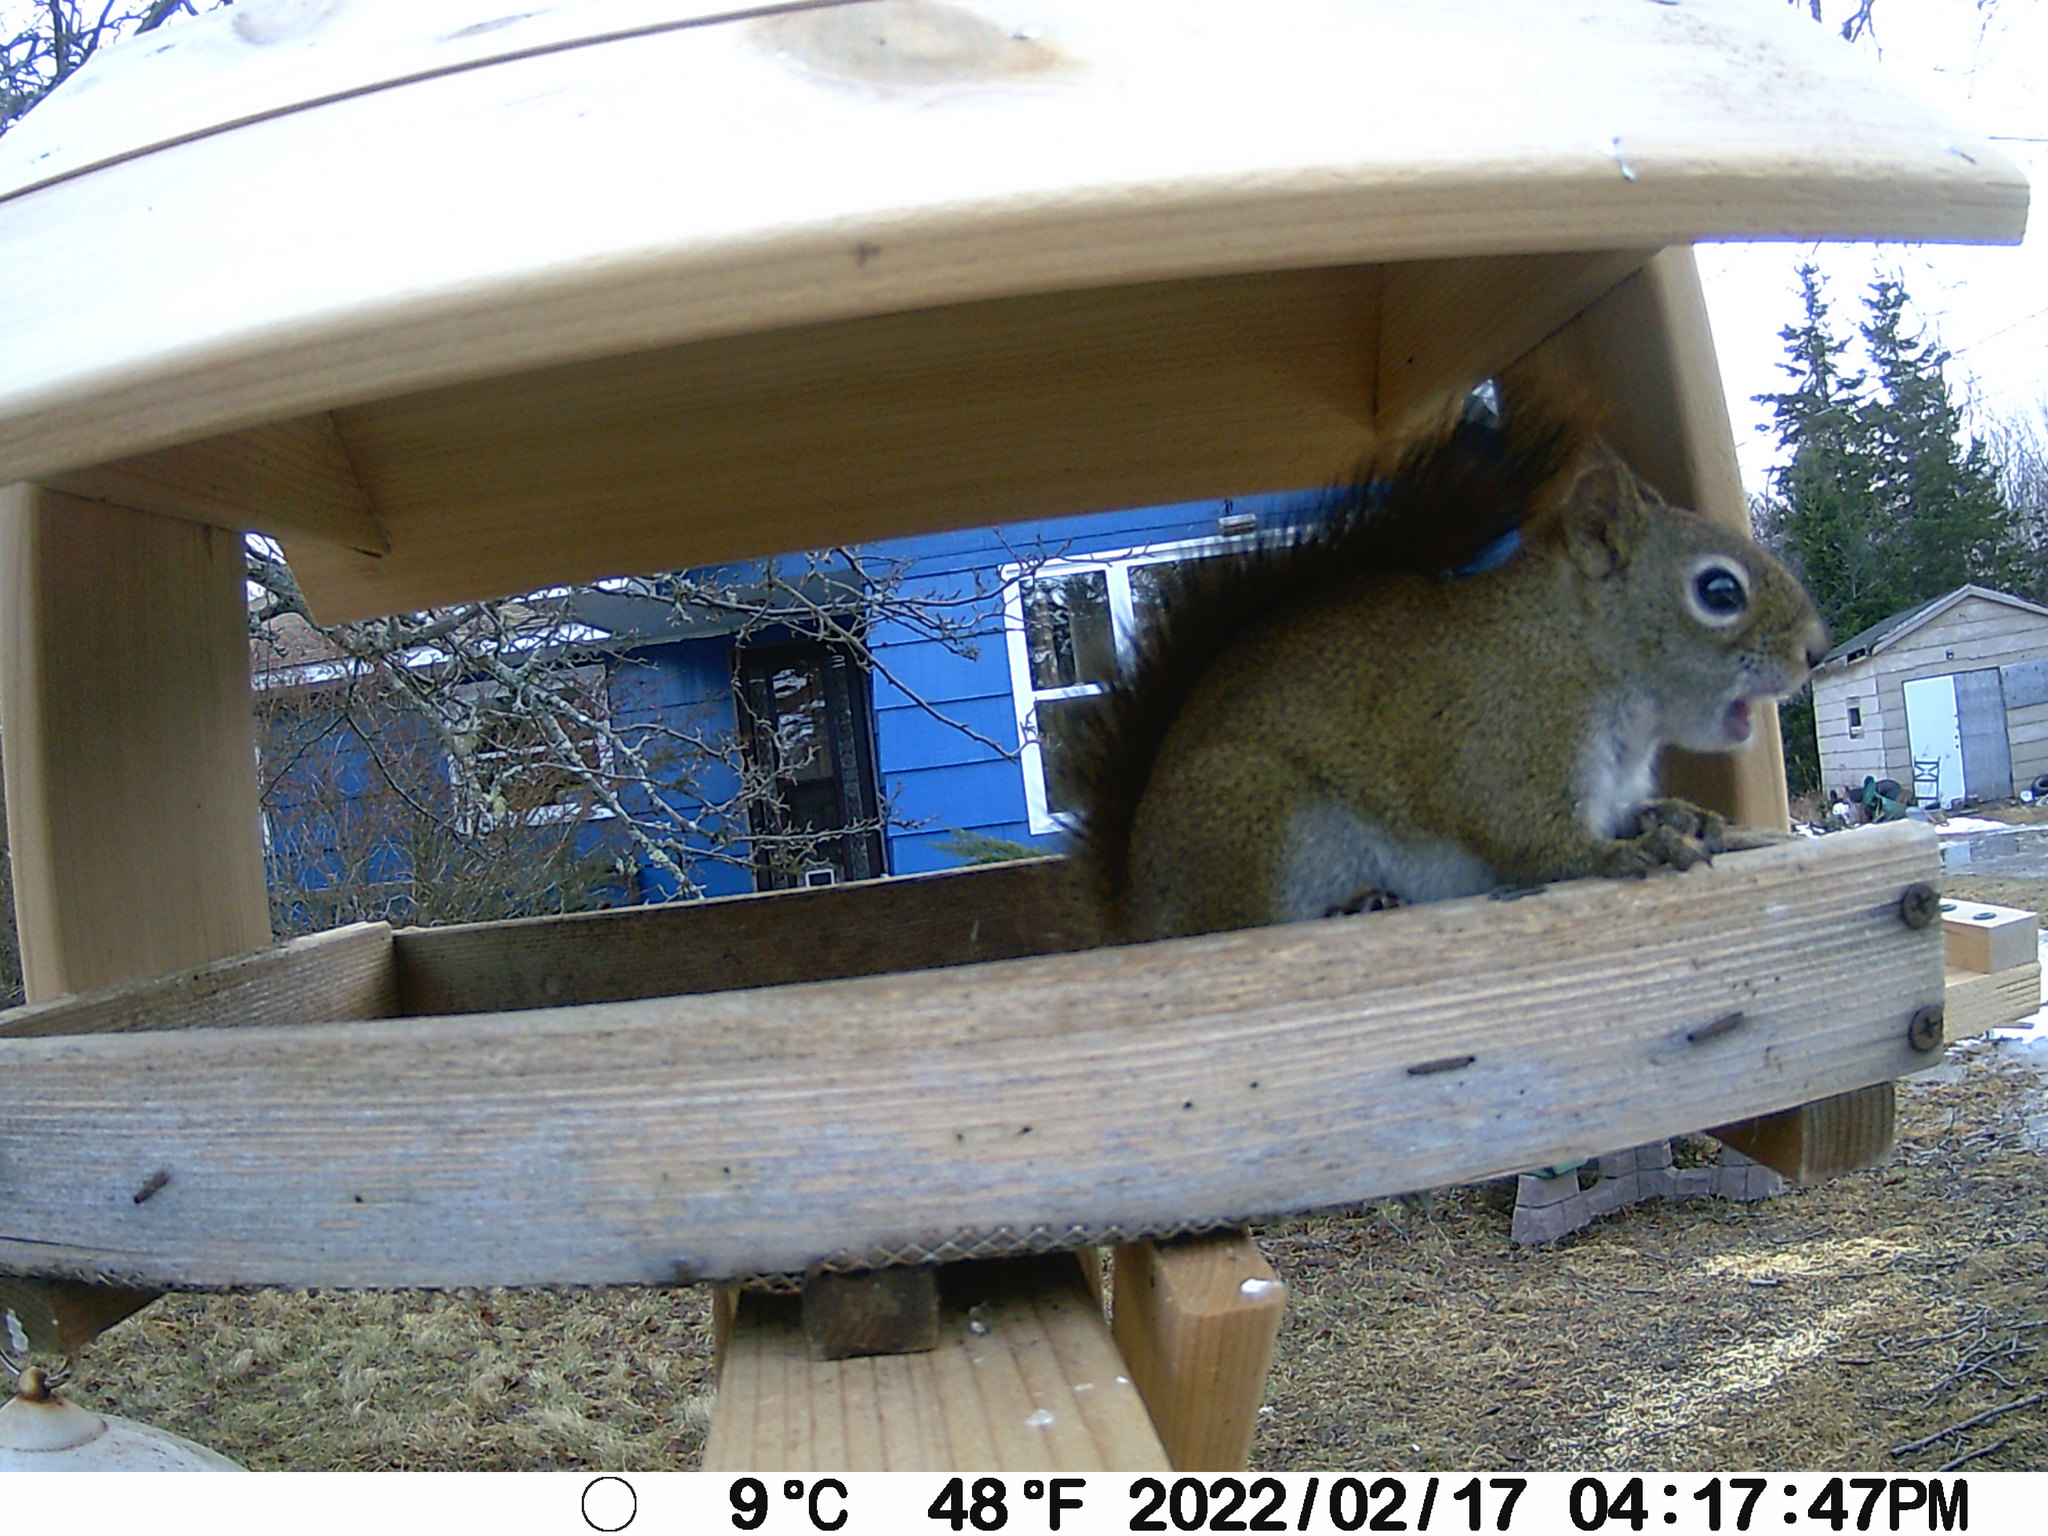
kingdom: Animalia
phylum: Chordata
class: Mammalia
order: Rodentia
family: Sciuridae
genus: Tamiasciurus
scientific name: Tamiasciurus hudsonicus
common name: Red squirrel
